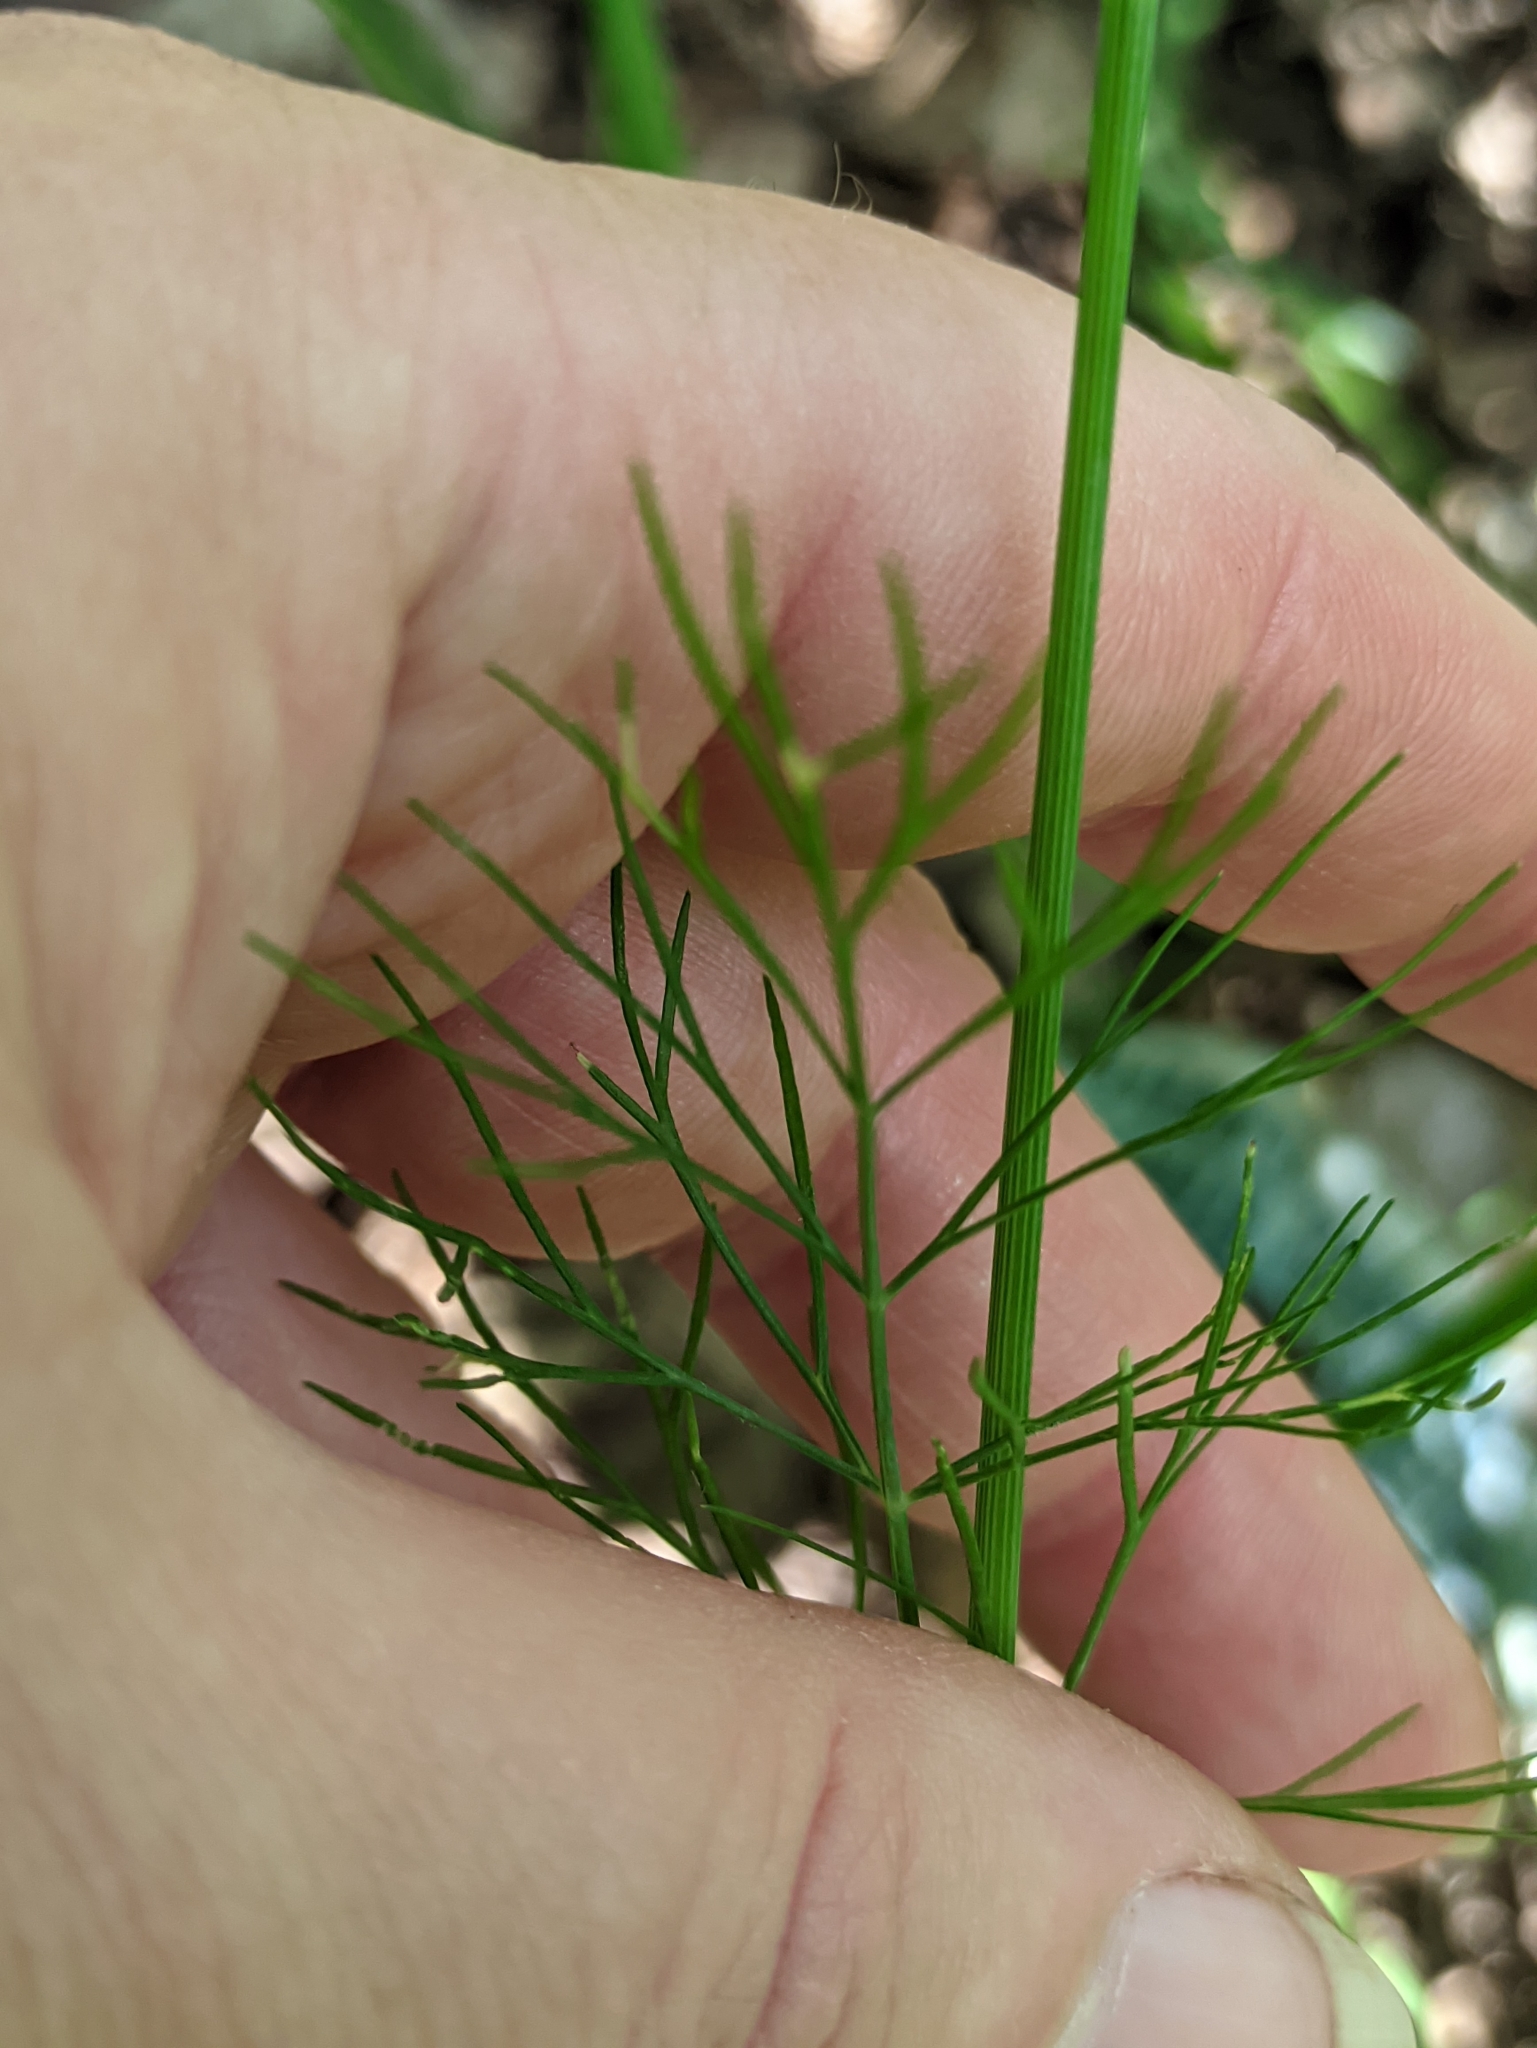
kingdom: Plantae
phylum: Tracheophyta
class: Magnoliopsida
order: Apiales
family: Apiaceae
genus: Anethum
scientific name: Anethum graveolens
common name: Dill
